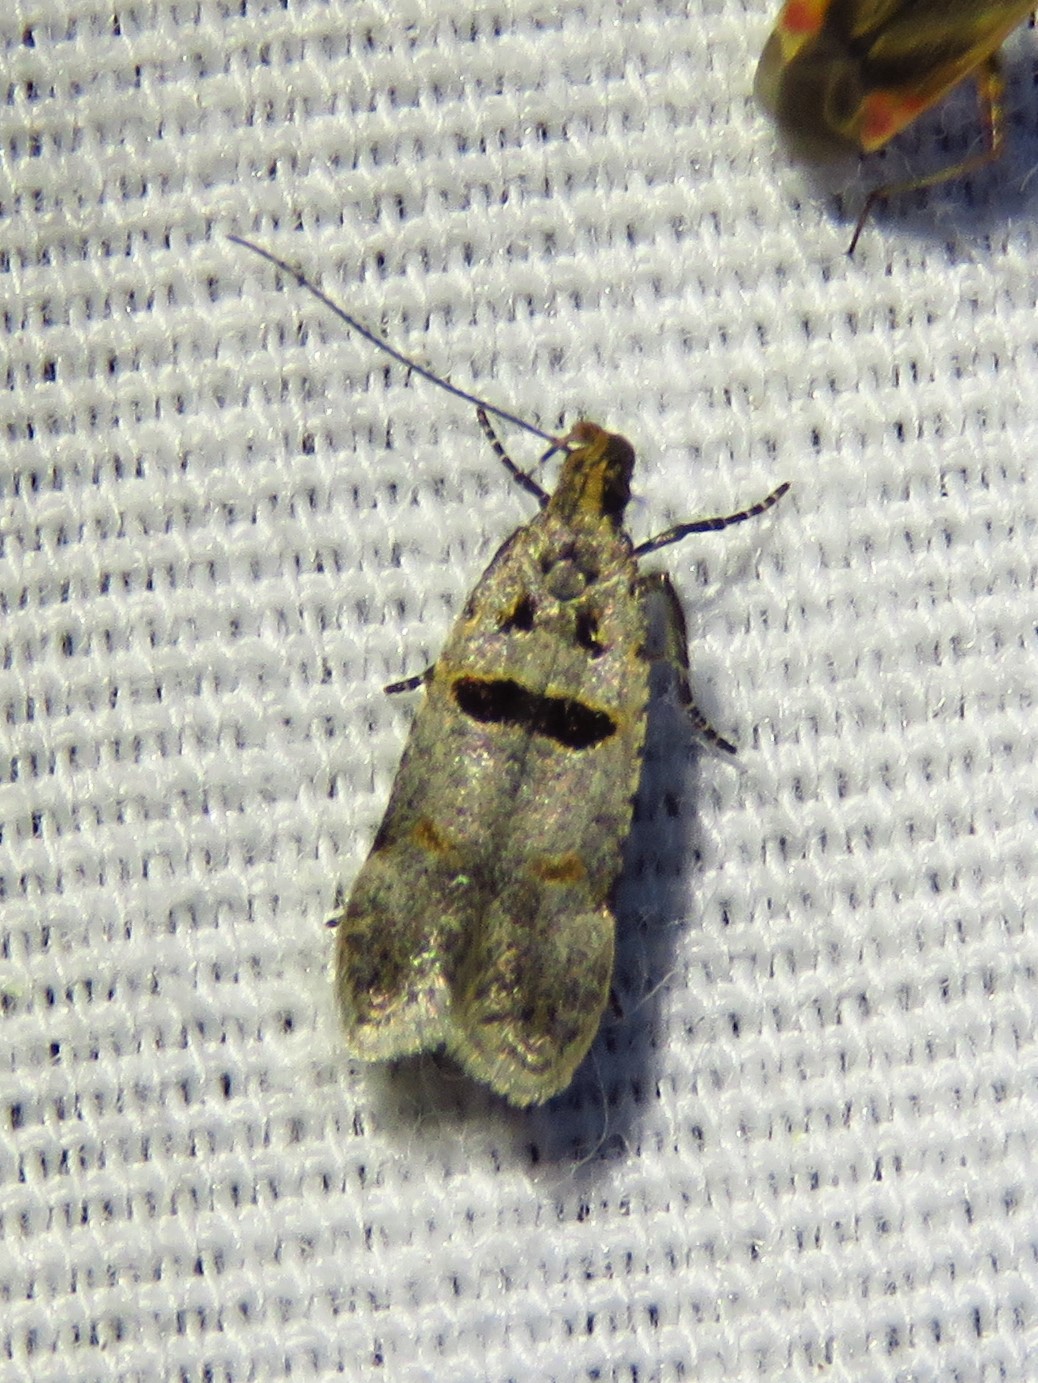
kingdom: Animalia
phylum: Arthropoda
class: Insecta
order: Lepidoptera
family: Gelechiidae
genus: Deltophora
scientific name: Deltophora glandiferella
